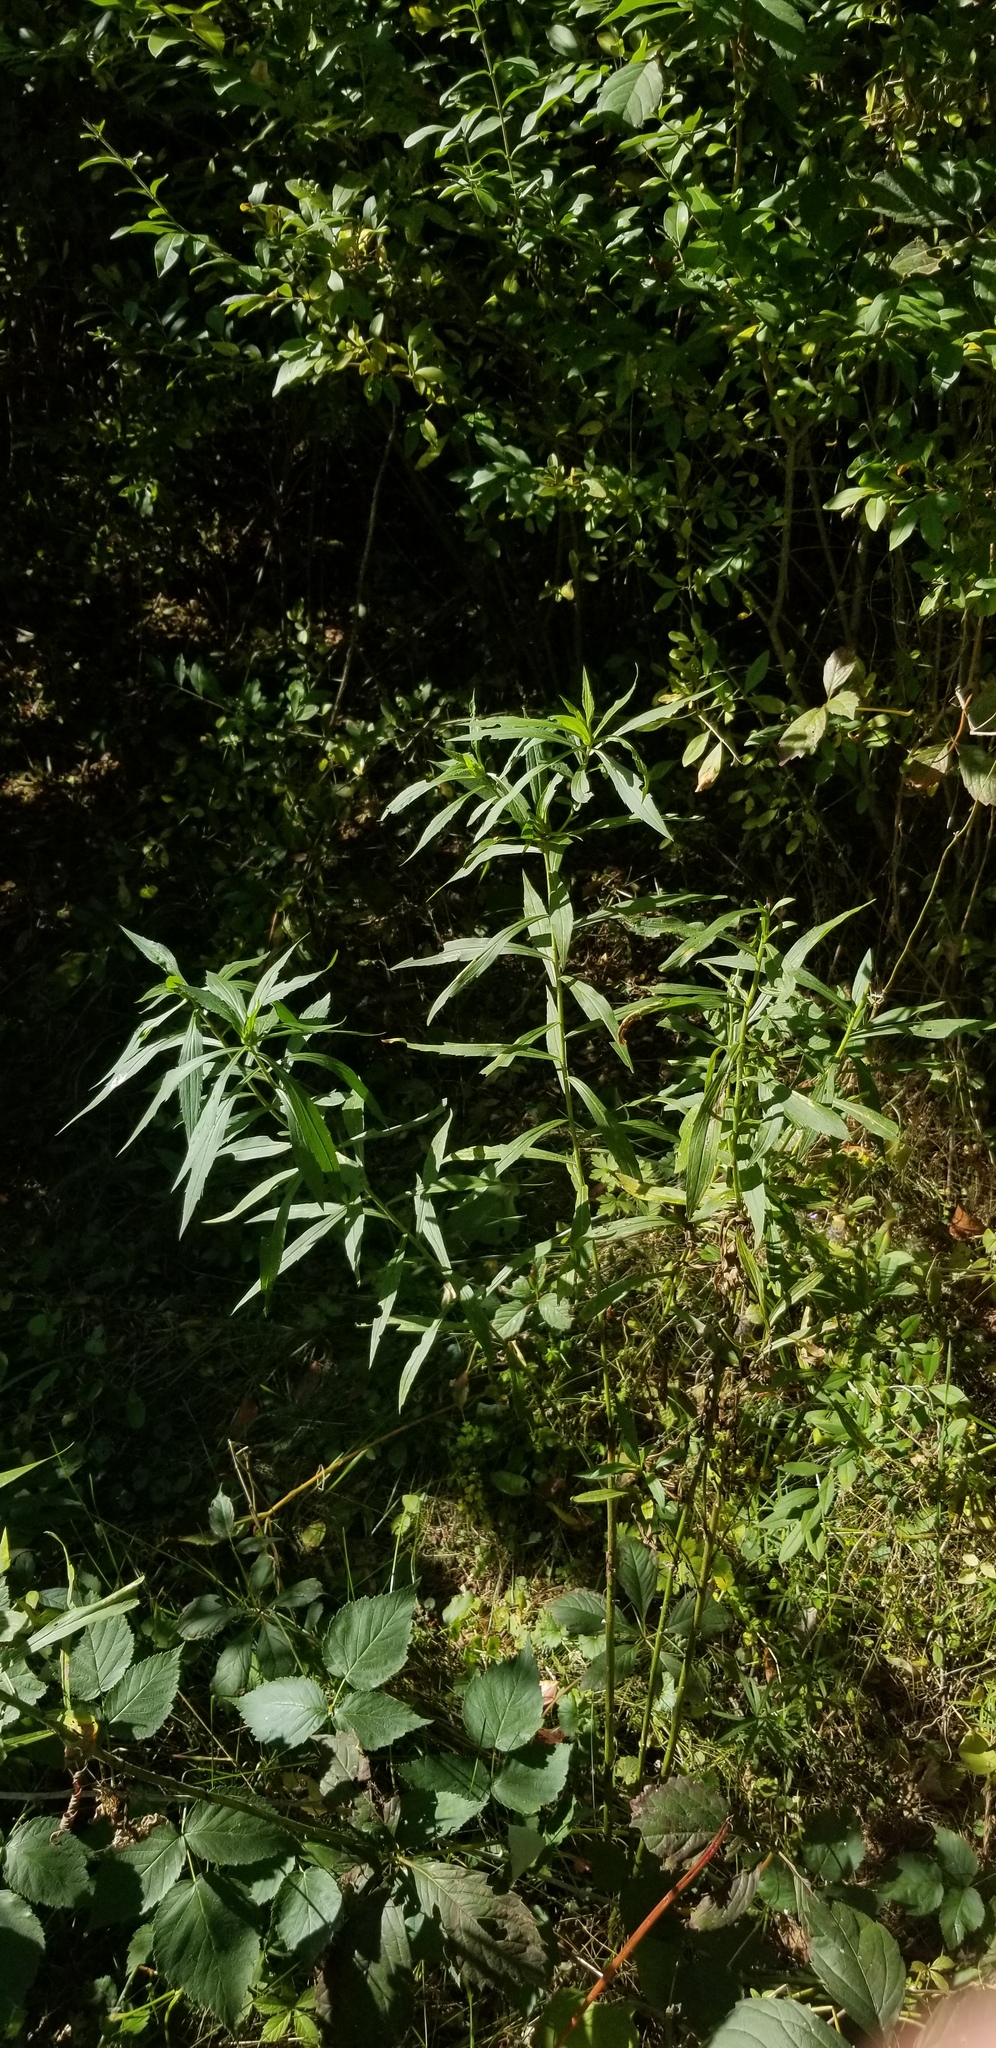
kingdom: Animalia
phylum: Arthropoda
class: Insecta
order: Diptera
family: Cecidomyiidae
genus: Dasineura
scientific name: Dasineura folliculi
